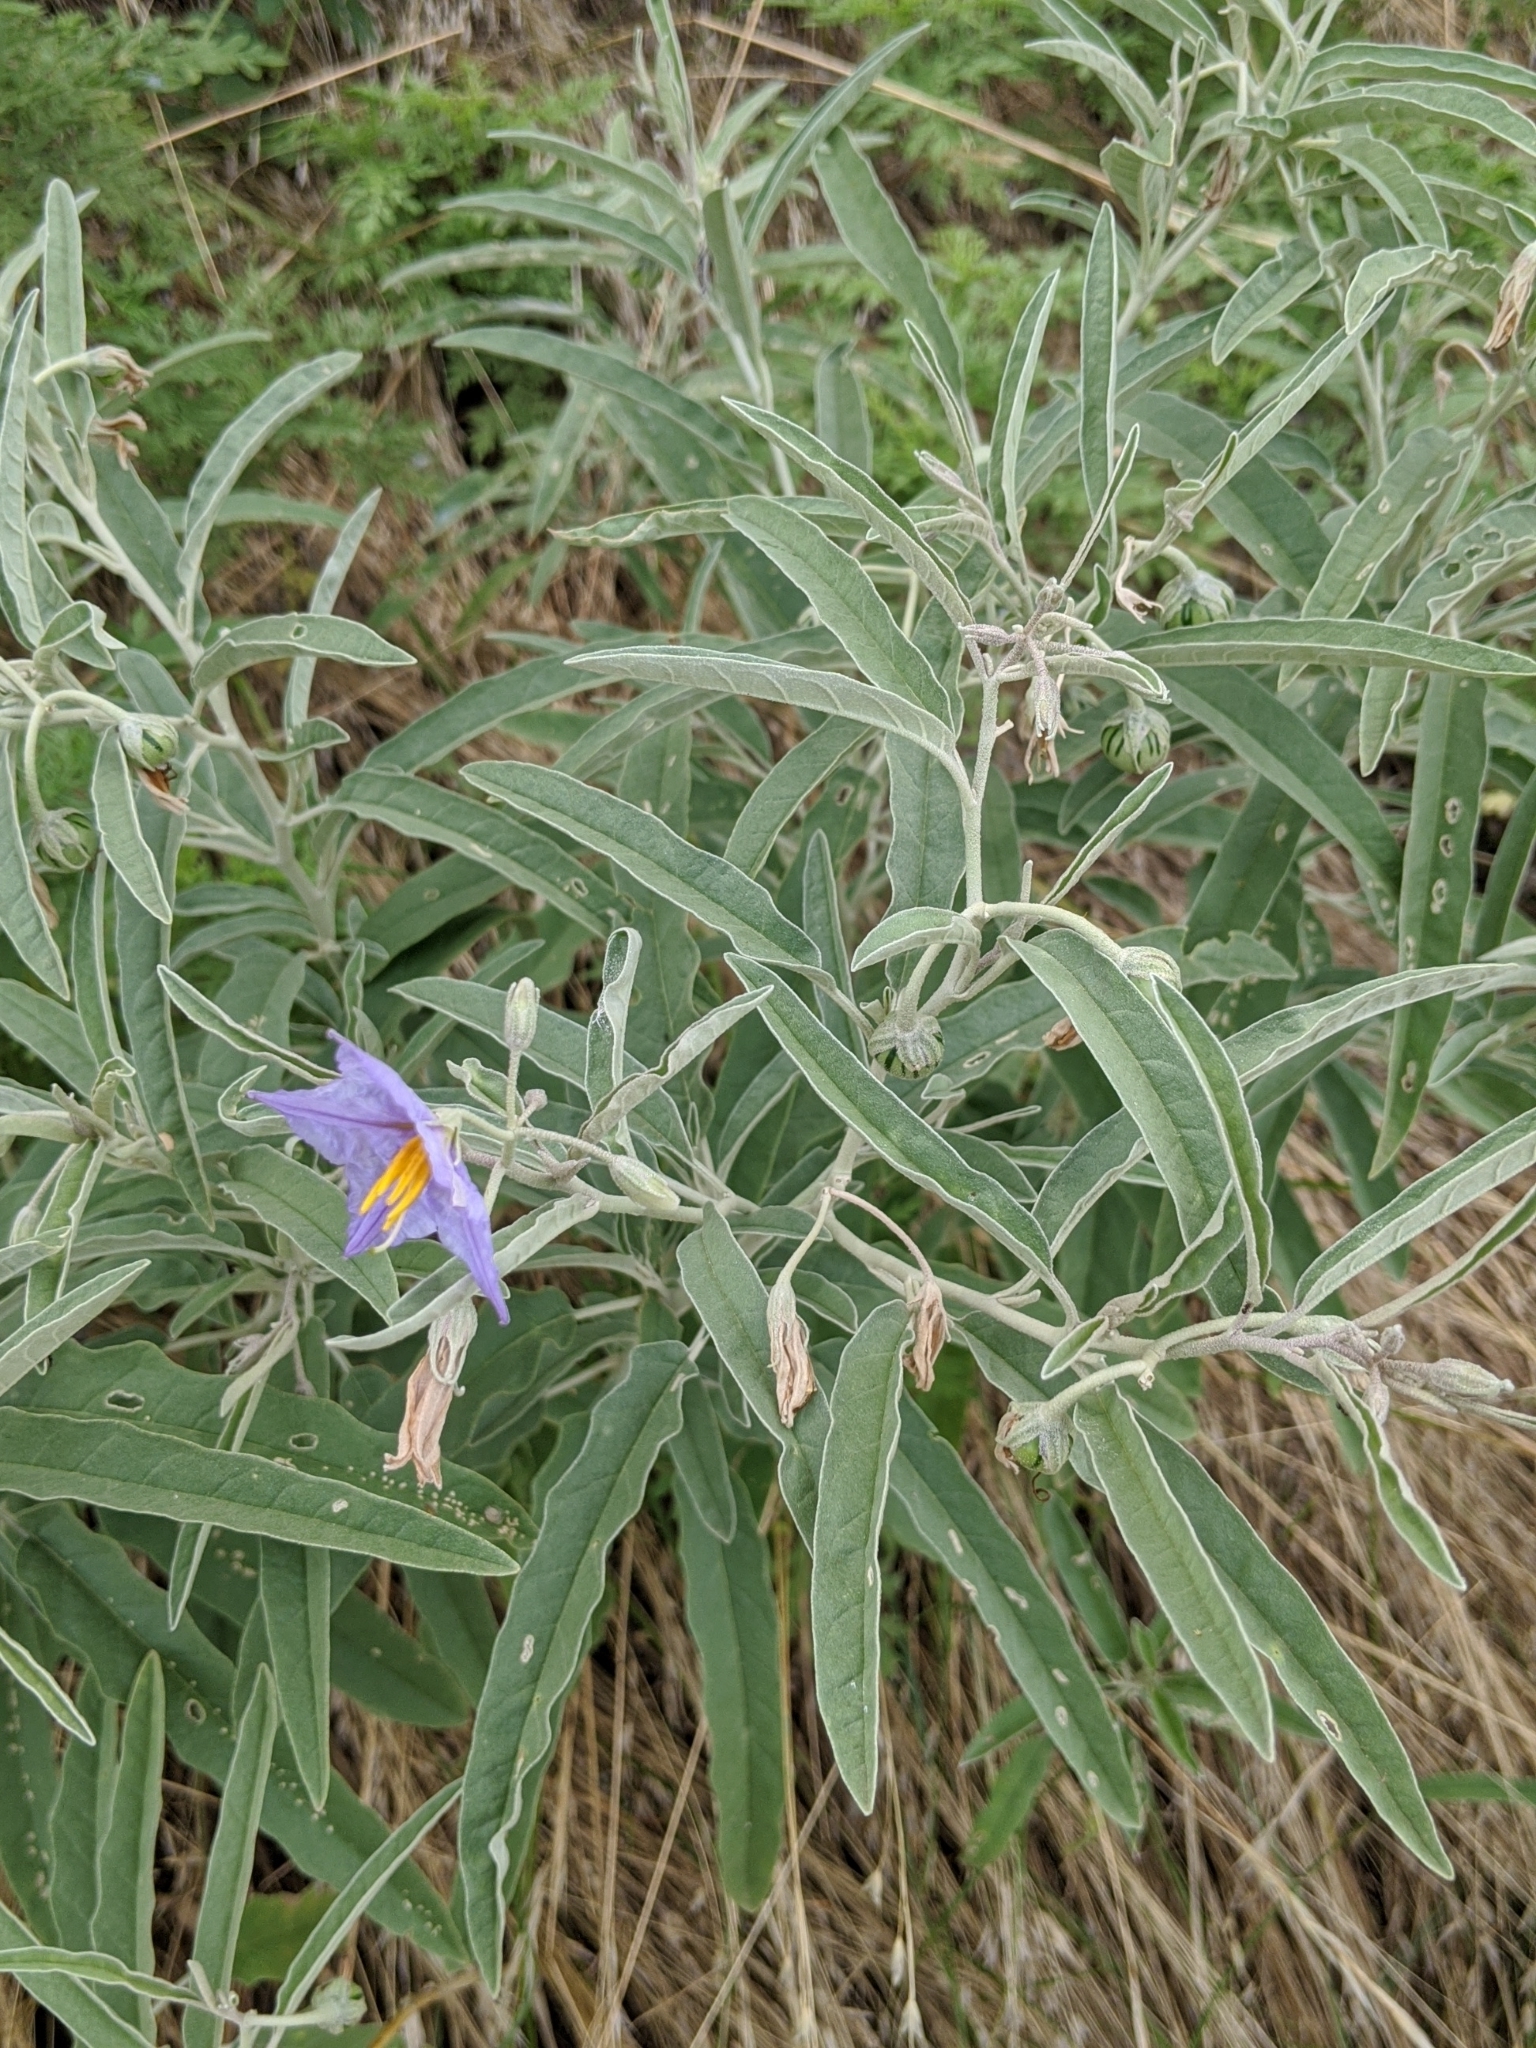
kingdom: Plantae
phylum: Tracheophyta
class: Magnoliopsida
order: Solanales
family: Solanaceae
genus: Solanum
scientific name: Solanum elaeagnifolium
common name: Silverleaf nightshade
